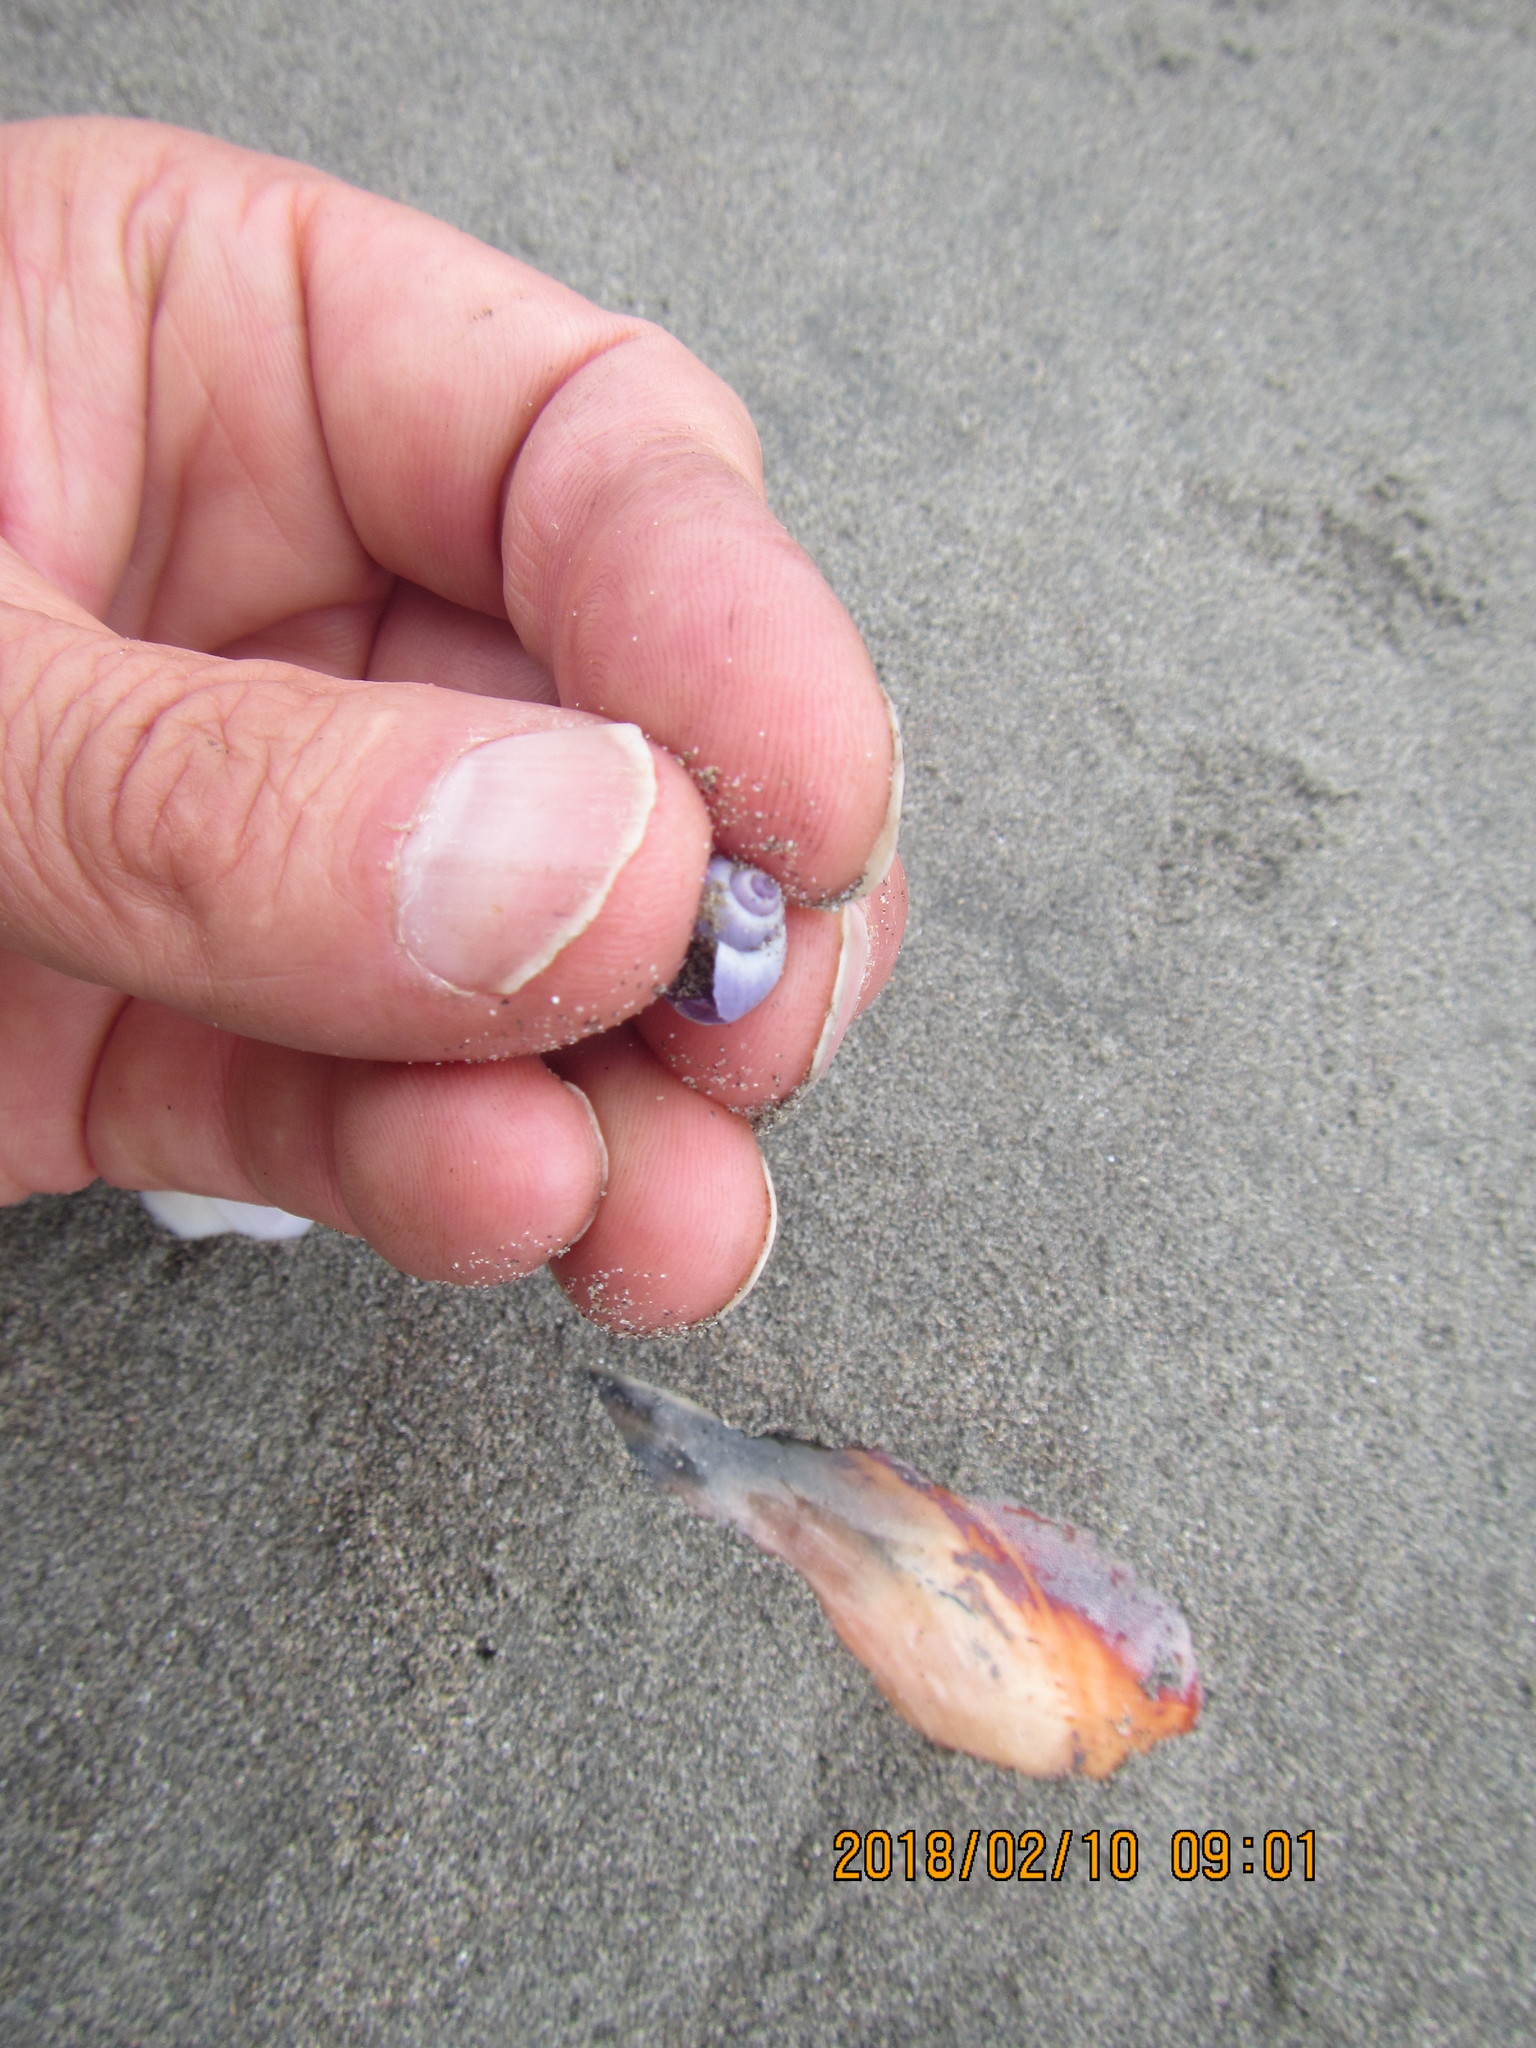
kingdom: Animalia
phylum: Mollusca
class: Gastropoda
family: Epitoniidae
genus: Janthina
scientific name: Janthina exigua
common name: Dwarf janthina
